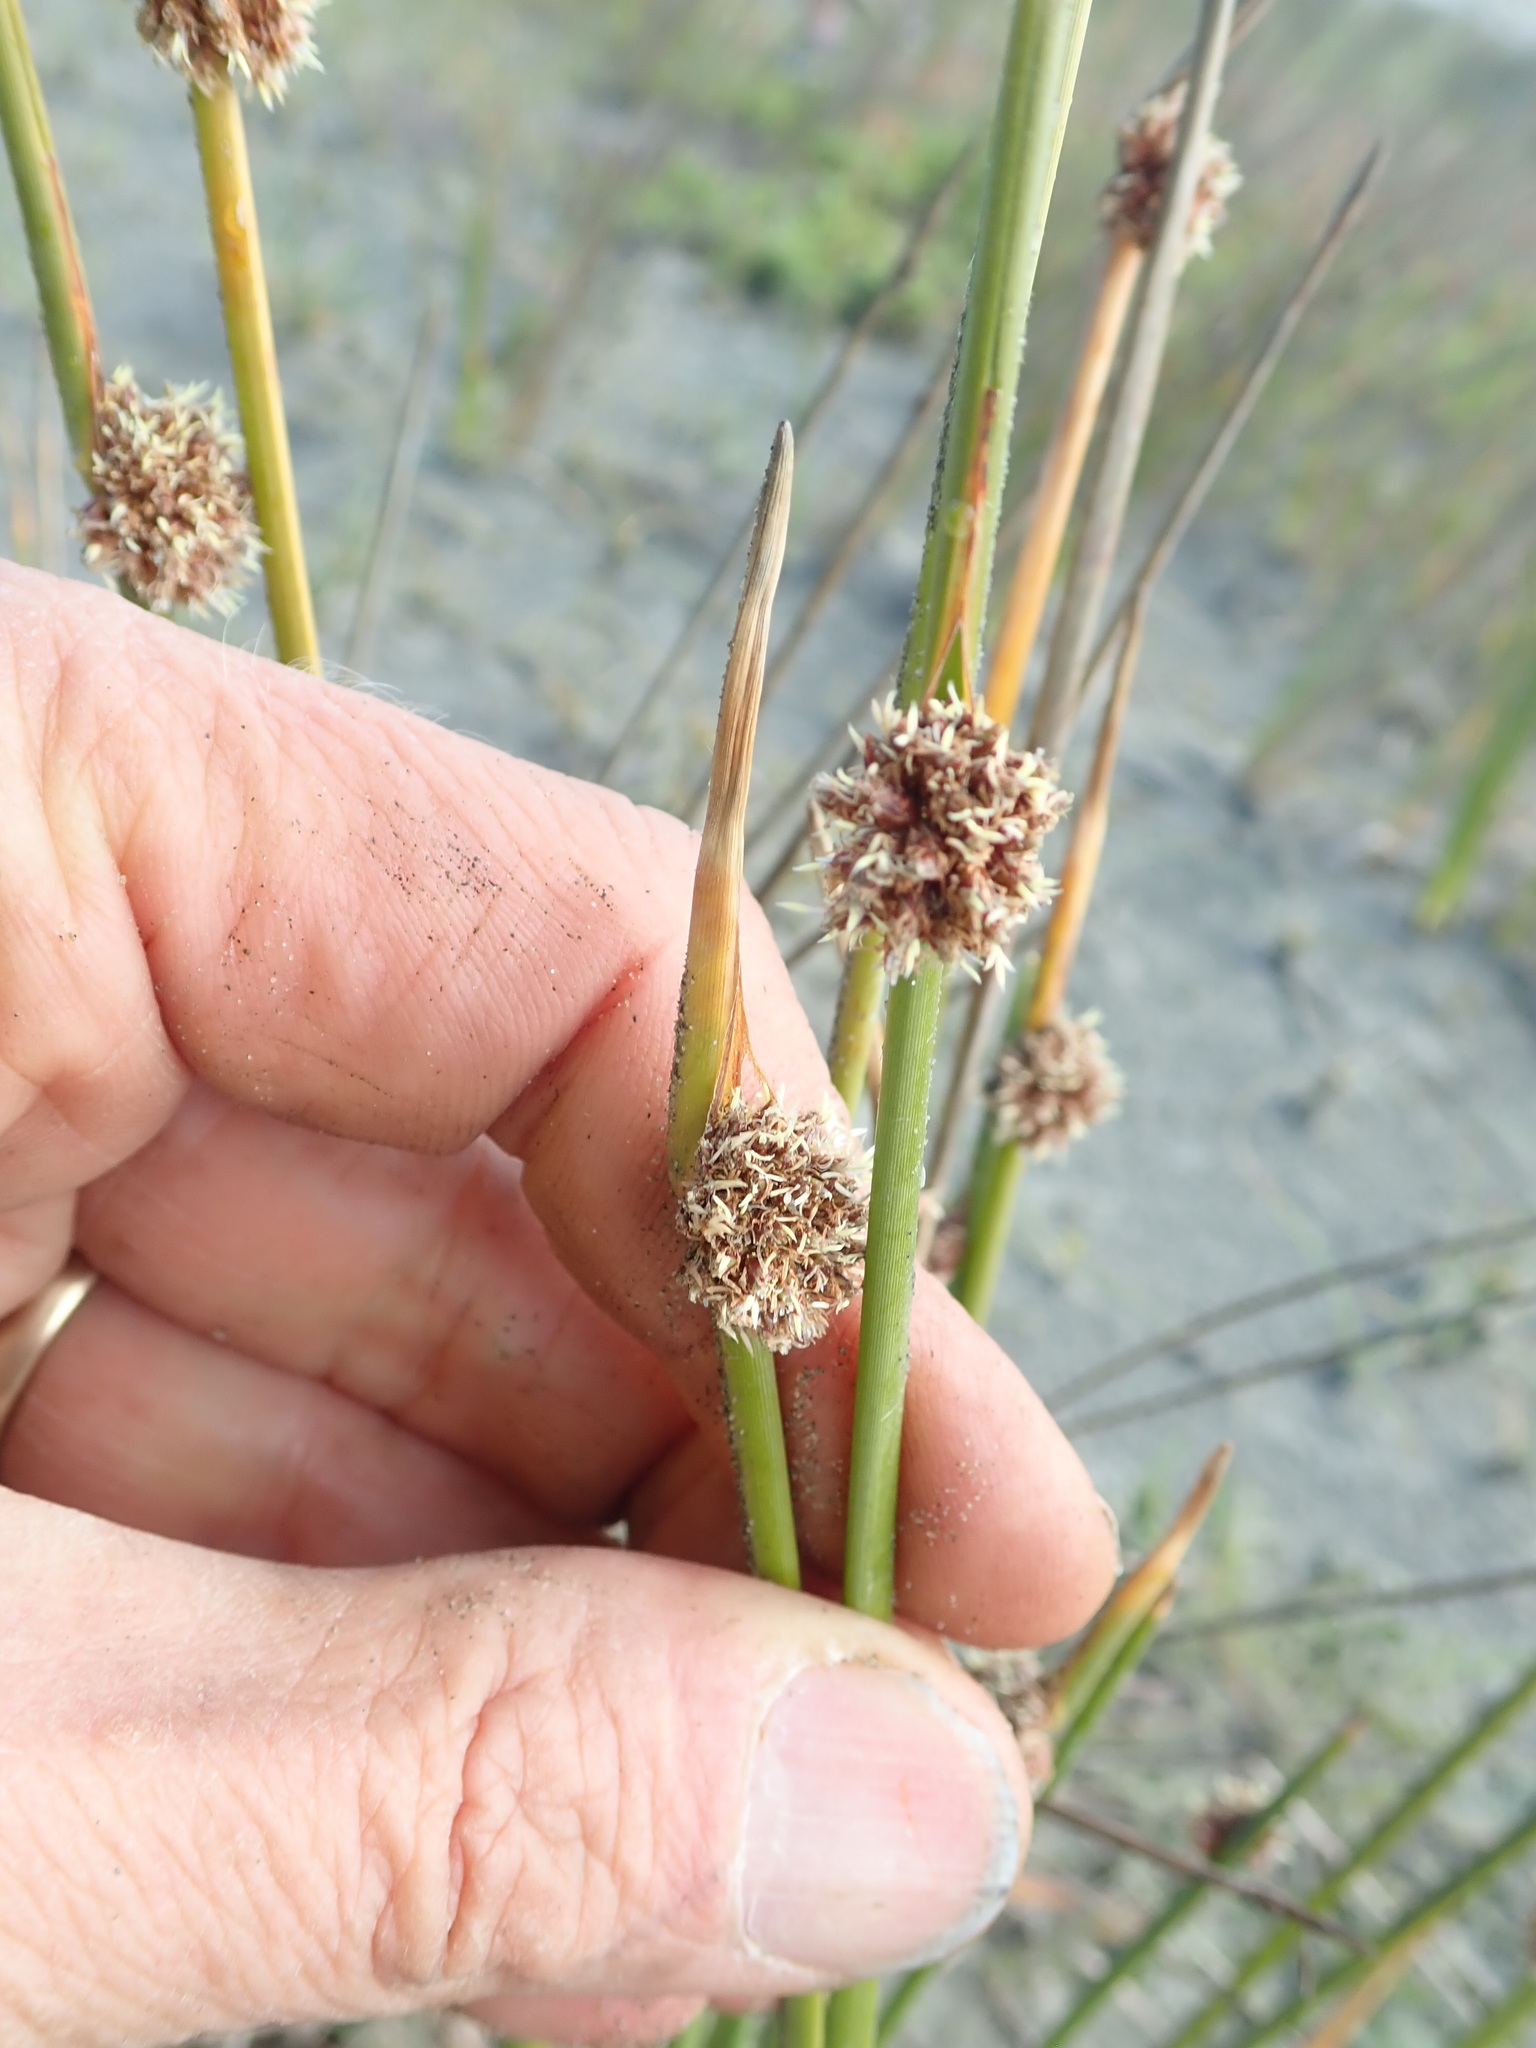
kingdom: Plantae
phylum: Tracheophyta
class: Liliopsida
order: Poales
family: Cyperaceae
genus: Ficinia
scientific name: Ficinia nodosa
